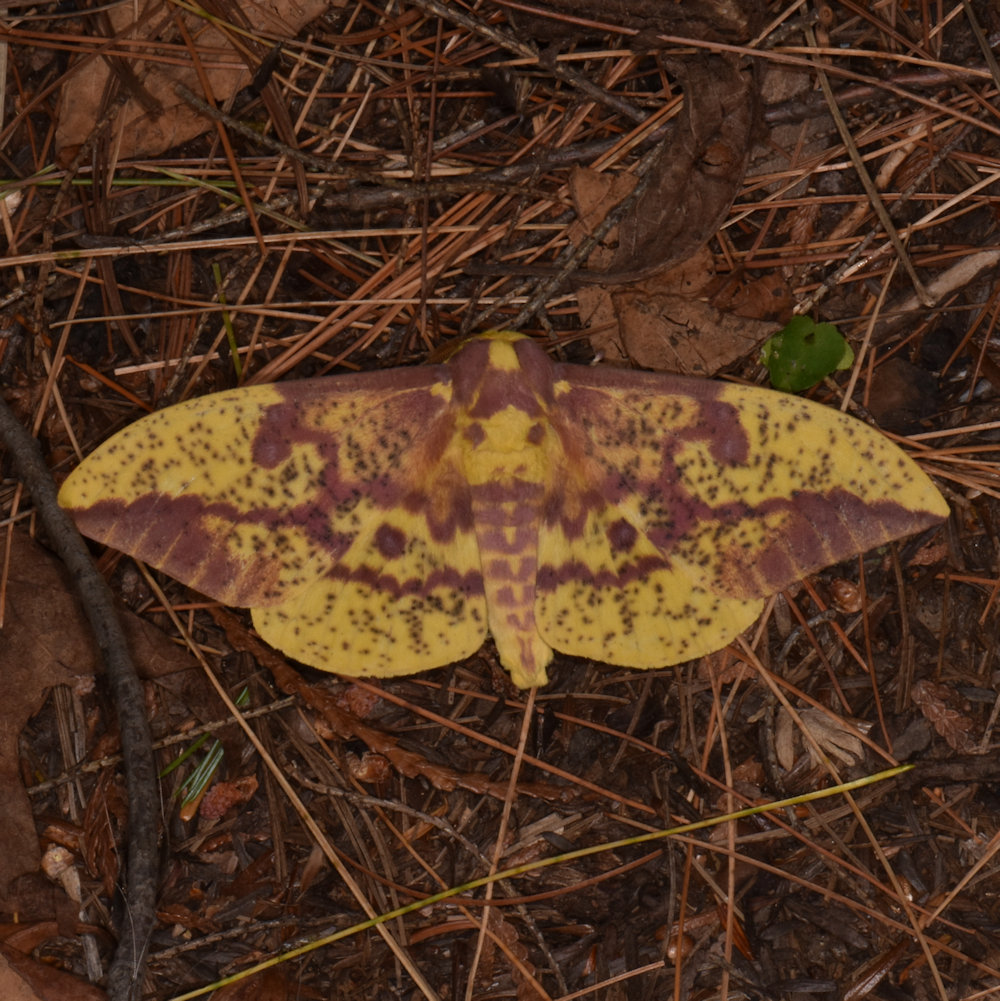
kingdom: Animalia
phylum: Arthropoda
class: Insecta
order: Lepidoptera
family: Saturniidae
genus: Eacles
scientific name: Eacles
